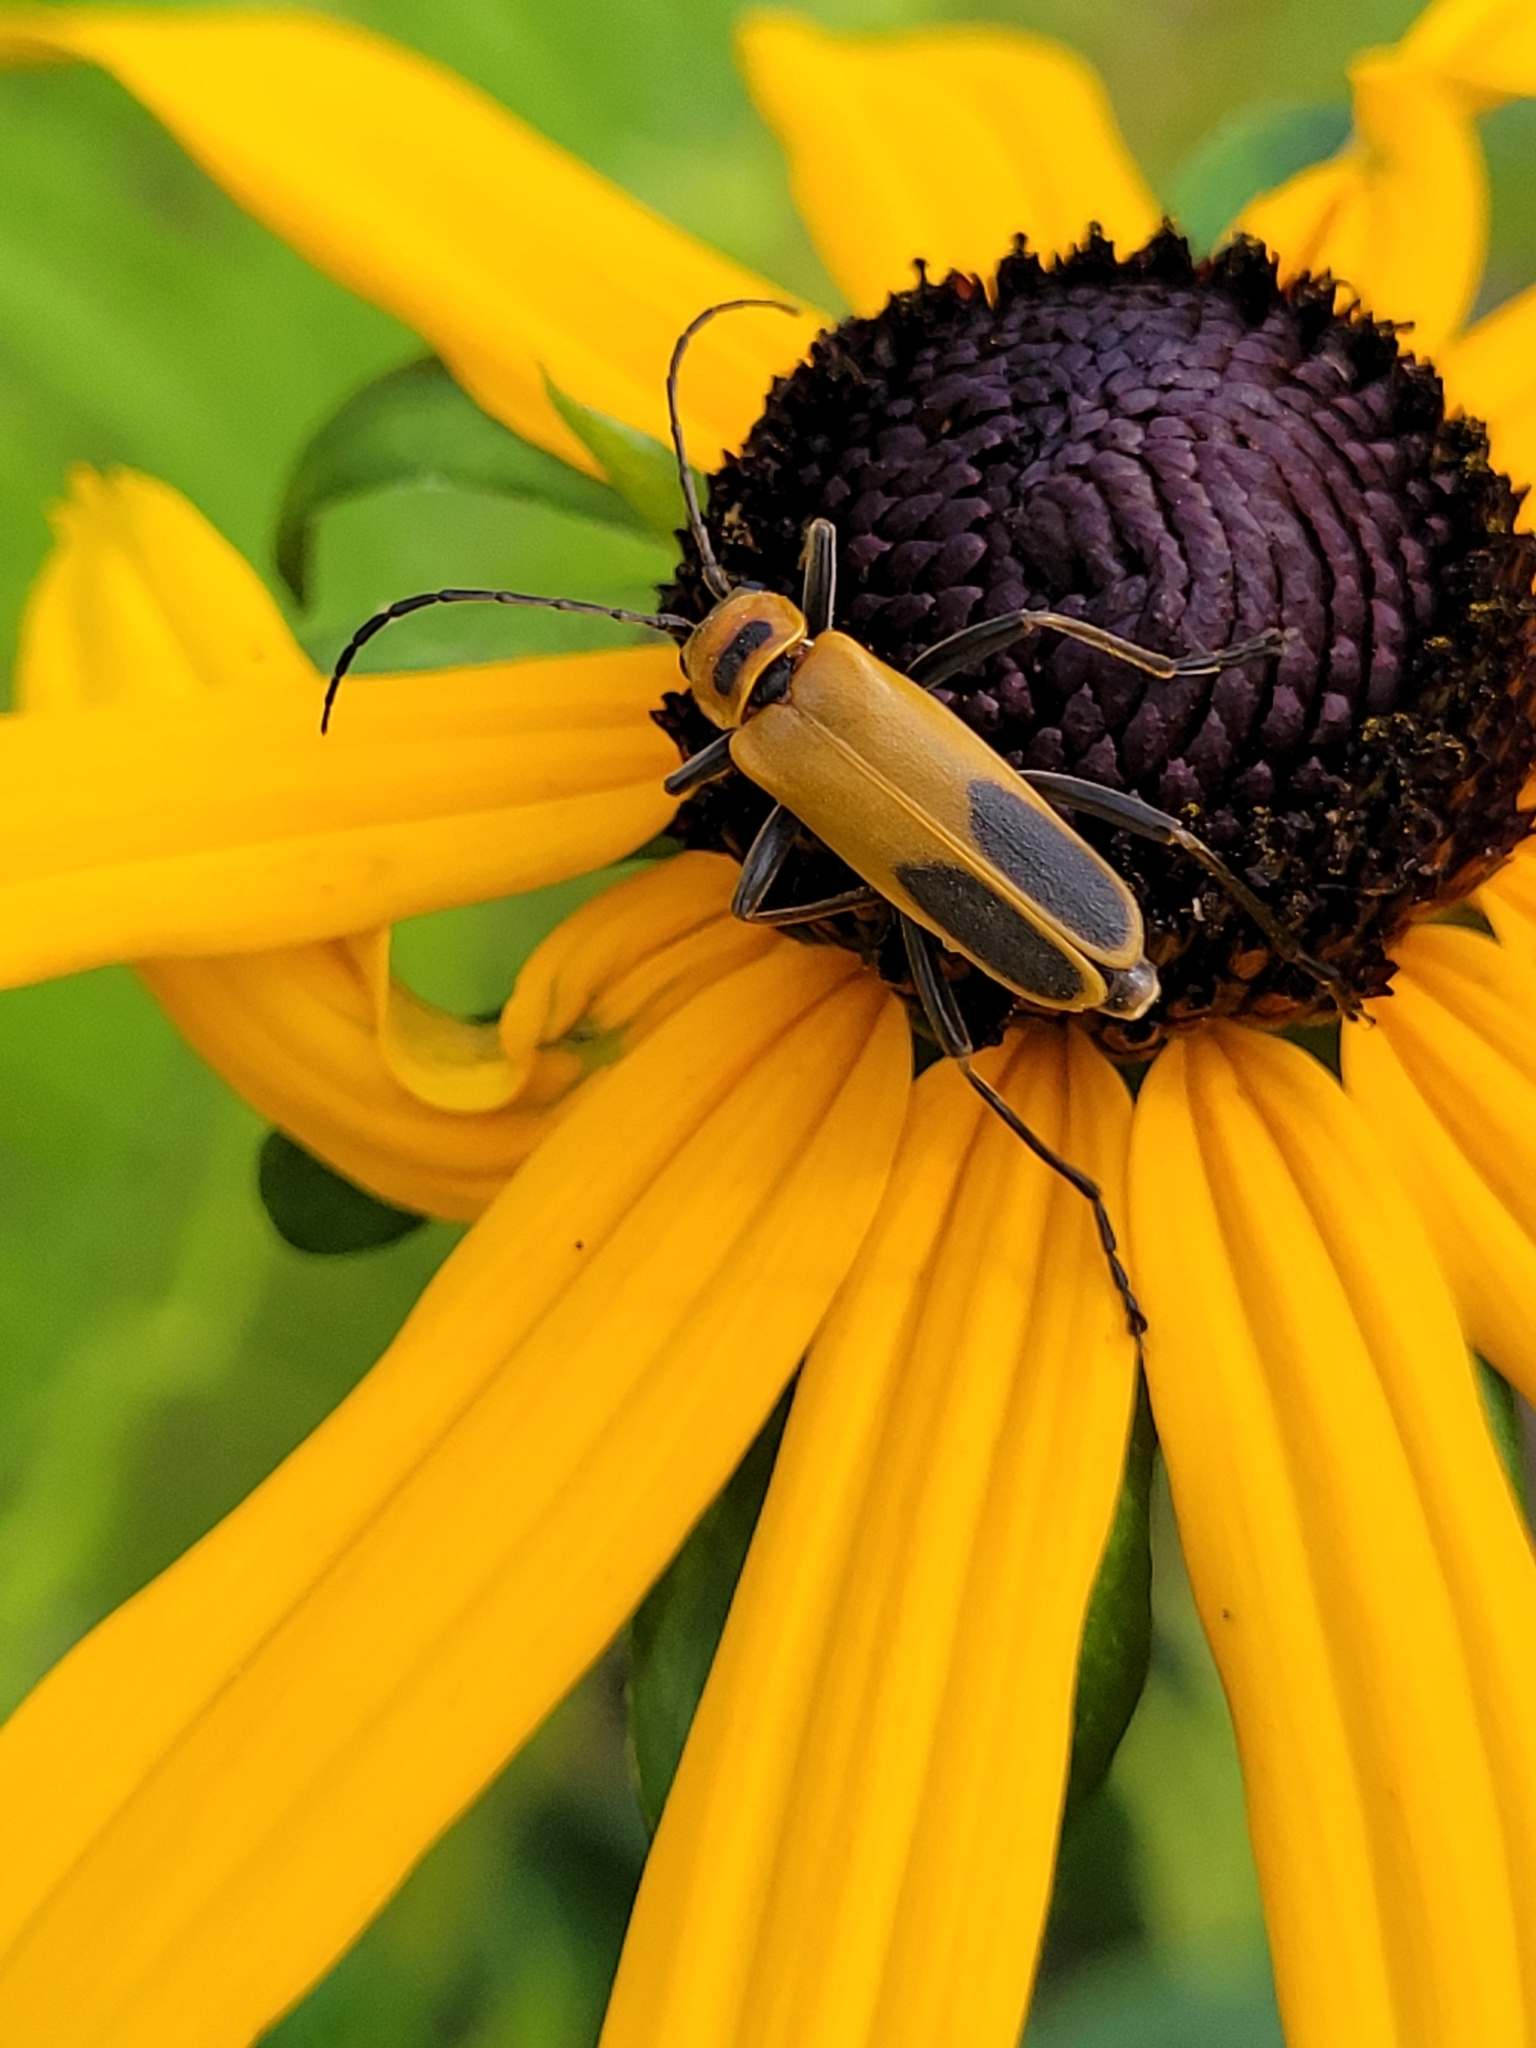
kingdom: Animalia
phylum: Arthropoda
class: Insecta
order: Coleoptera
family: Cantharidae
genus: Chauliognathus
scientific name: Chauliognathus pensylvanicus
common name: Goldenrod soldier beetle
